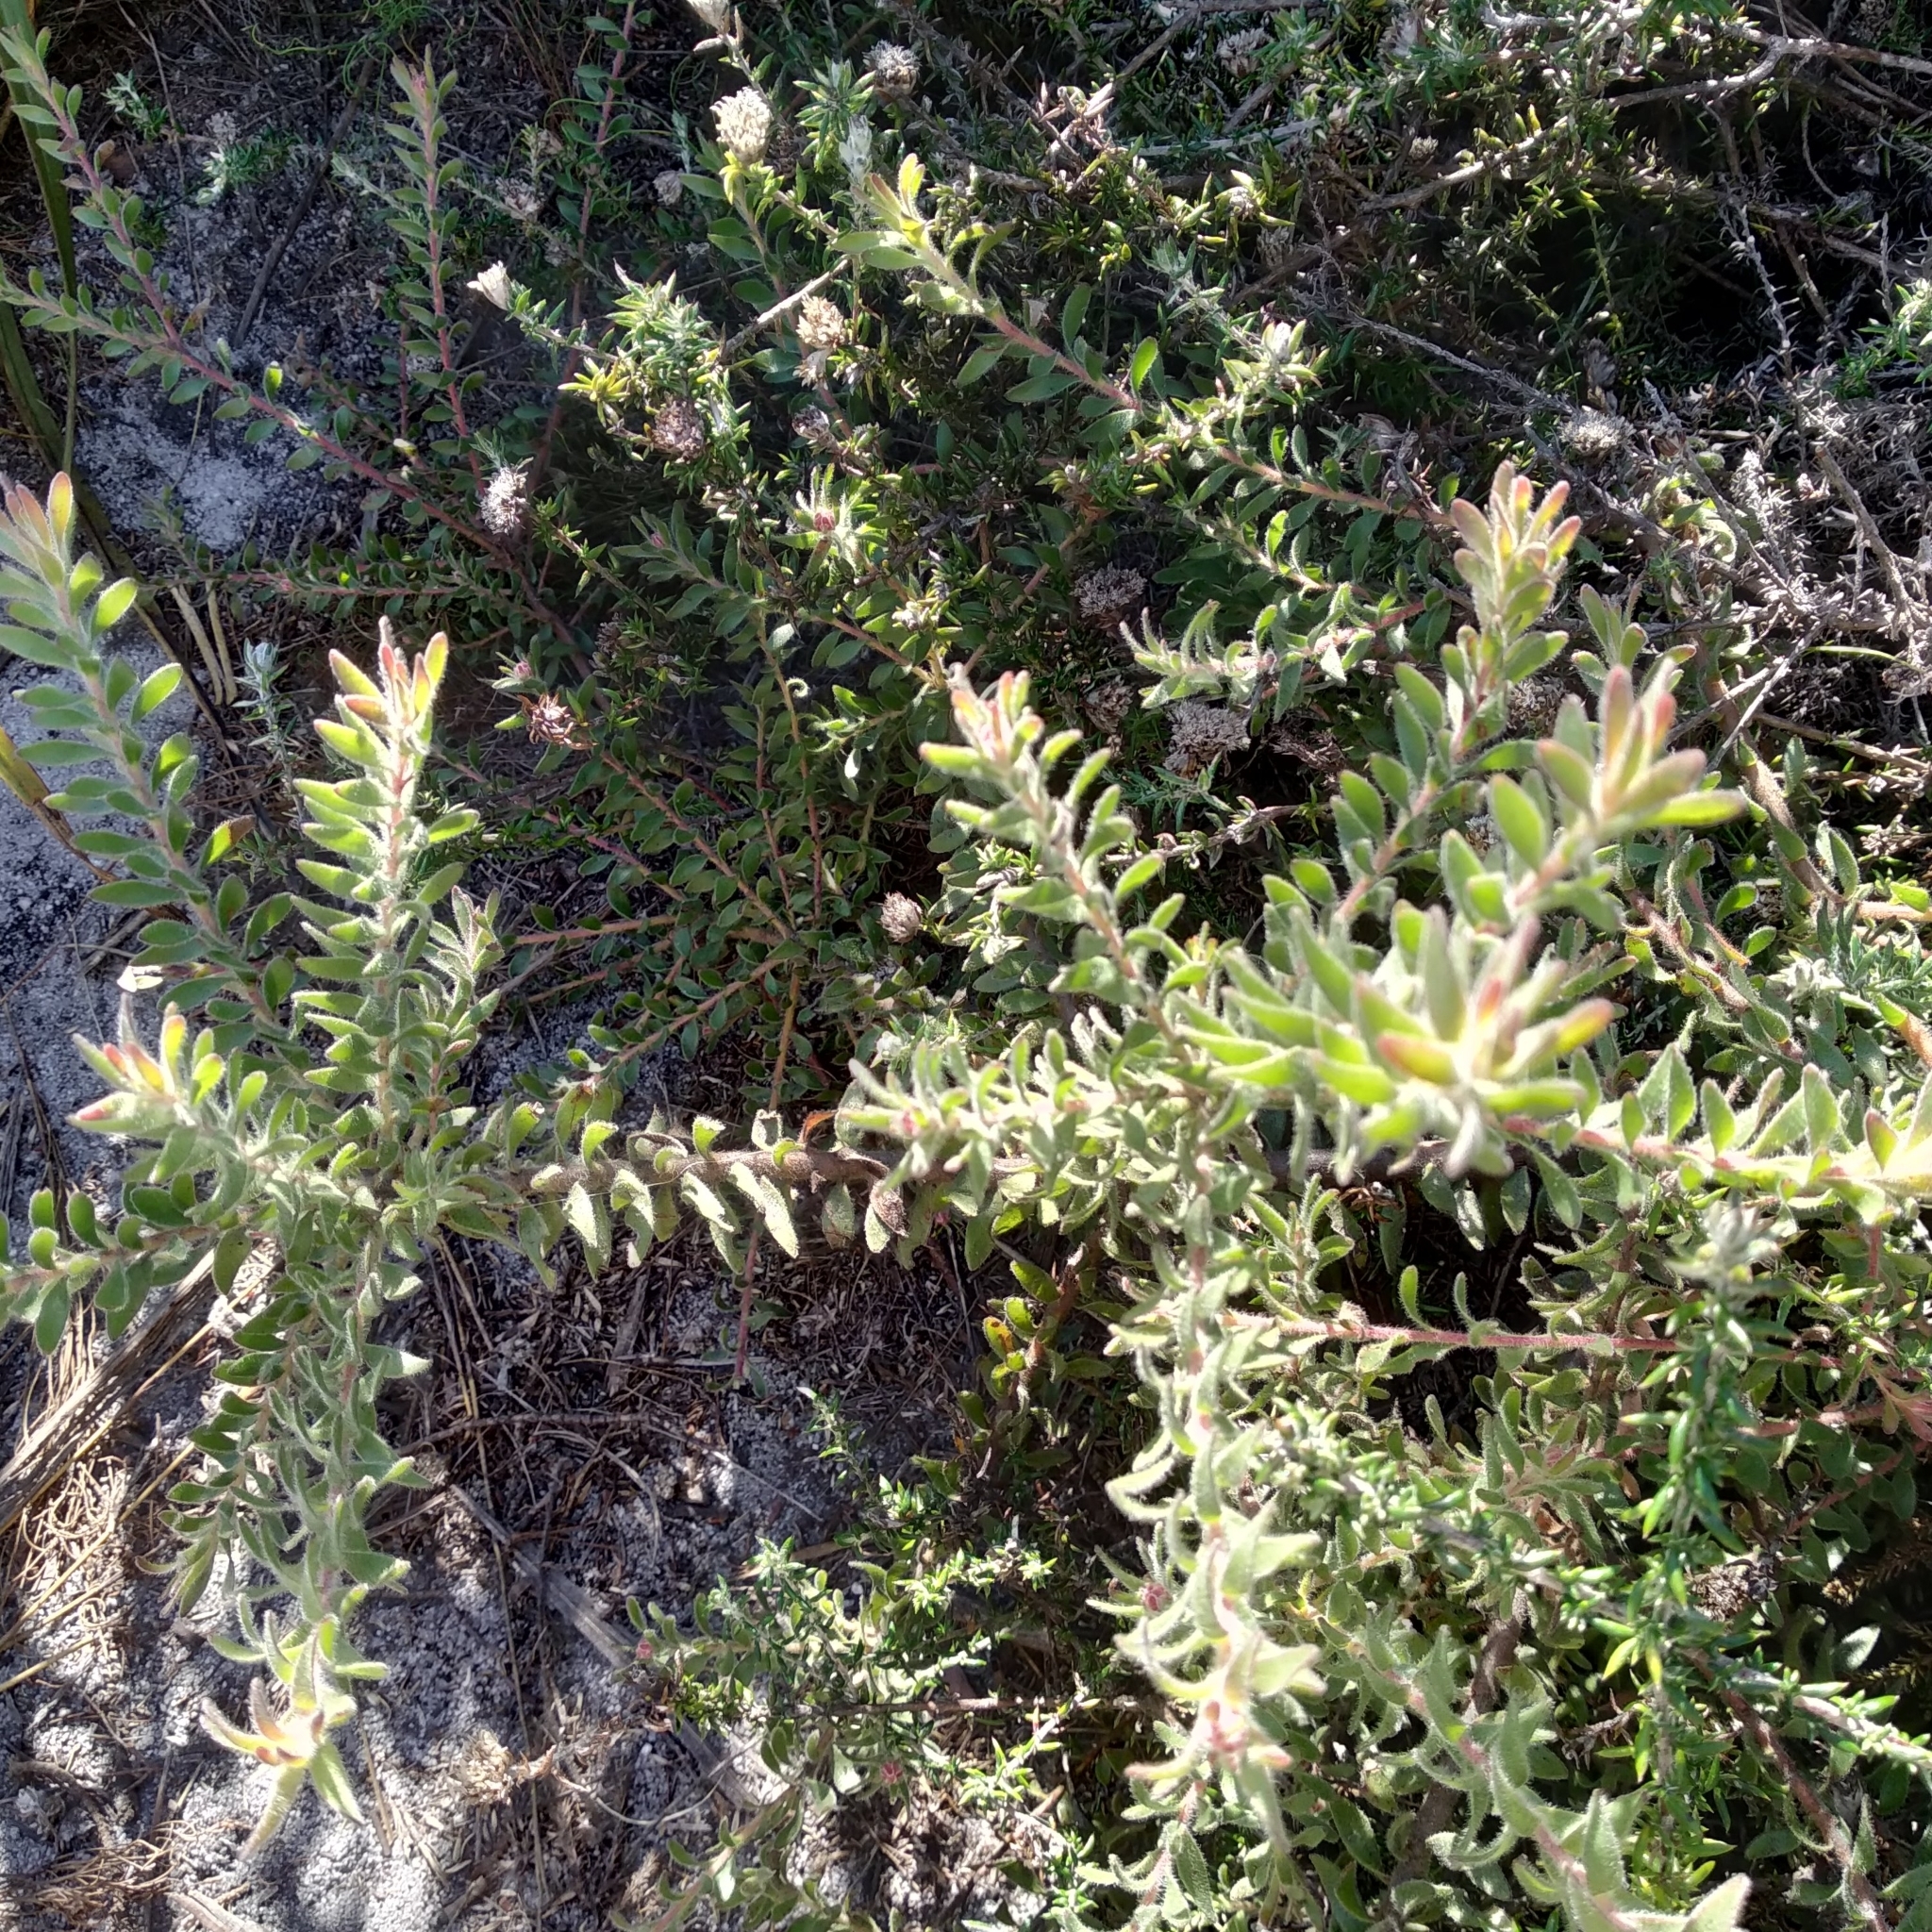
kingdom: Plantae
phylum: Tracheophyta
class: Magnoliopsida
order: Proteales
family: Proteaceae
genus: Diastella
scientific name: Diastella divaricata
